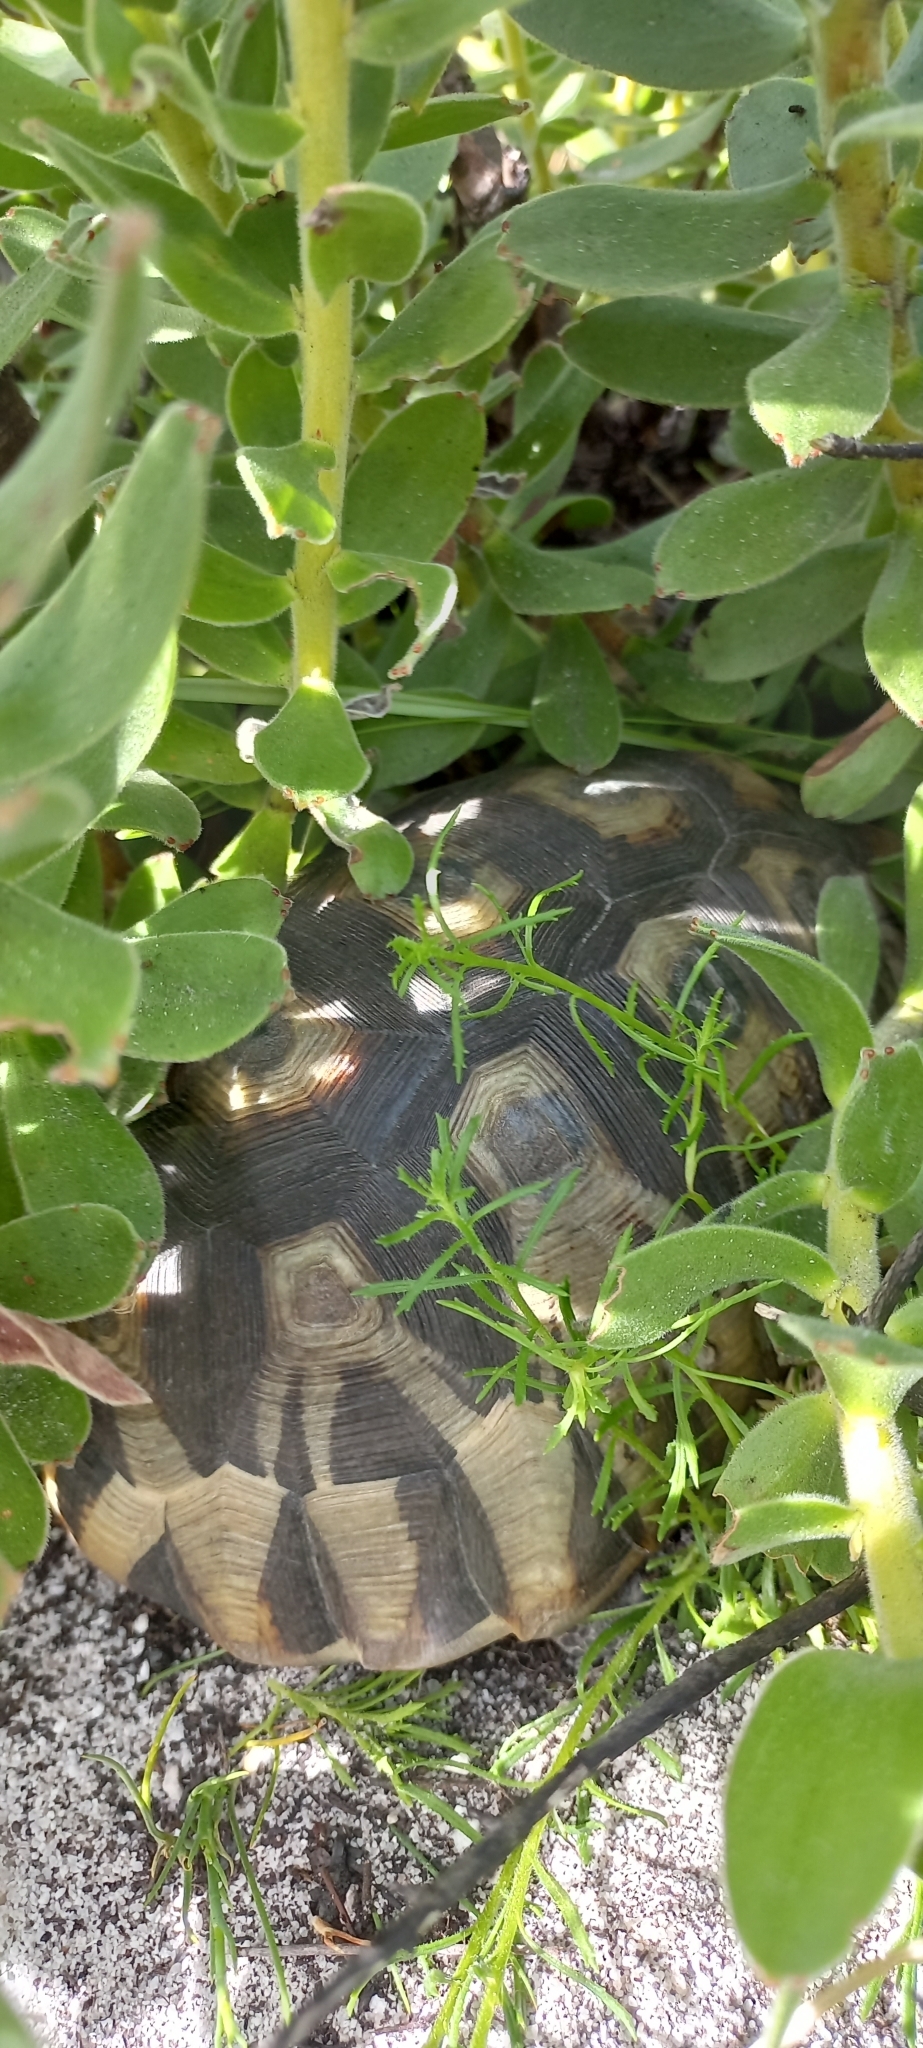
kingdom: Animalia
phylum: Chordata
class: Testudines
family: Testudinidae
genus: Chersina
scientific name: Chersina angulata
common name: South african bowsprit tortoise
